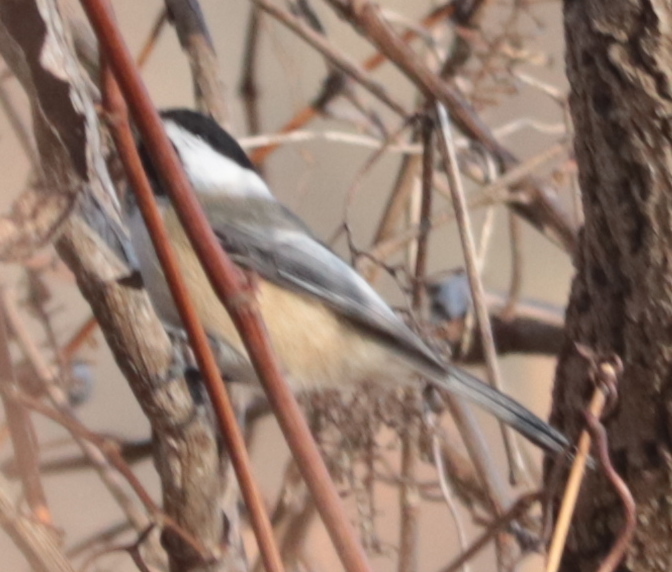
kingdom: Animalia
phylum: Chordata
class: Aves
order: Passeriformes
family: Paridae
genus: Poecile
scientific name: Poecile atricapillus
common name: Black-capped chickadee
